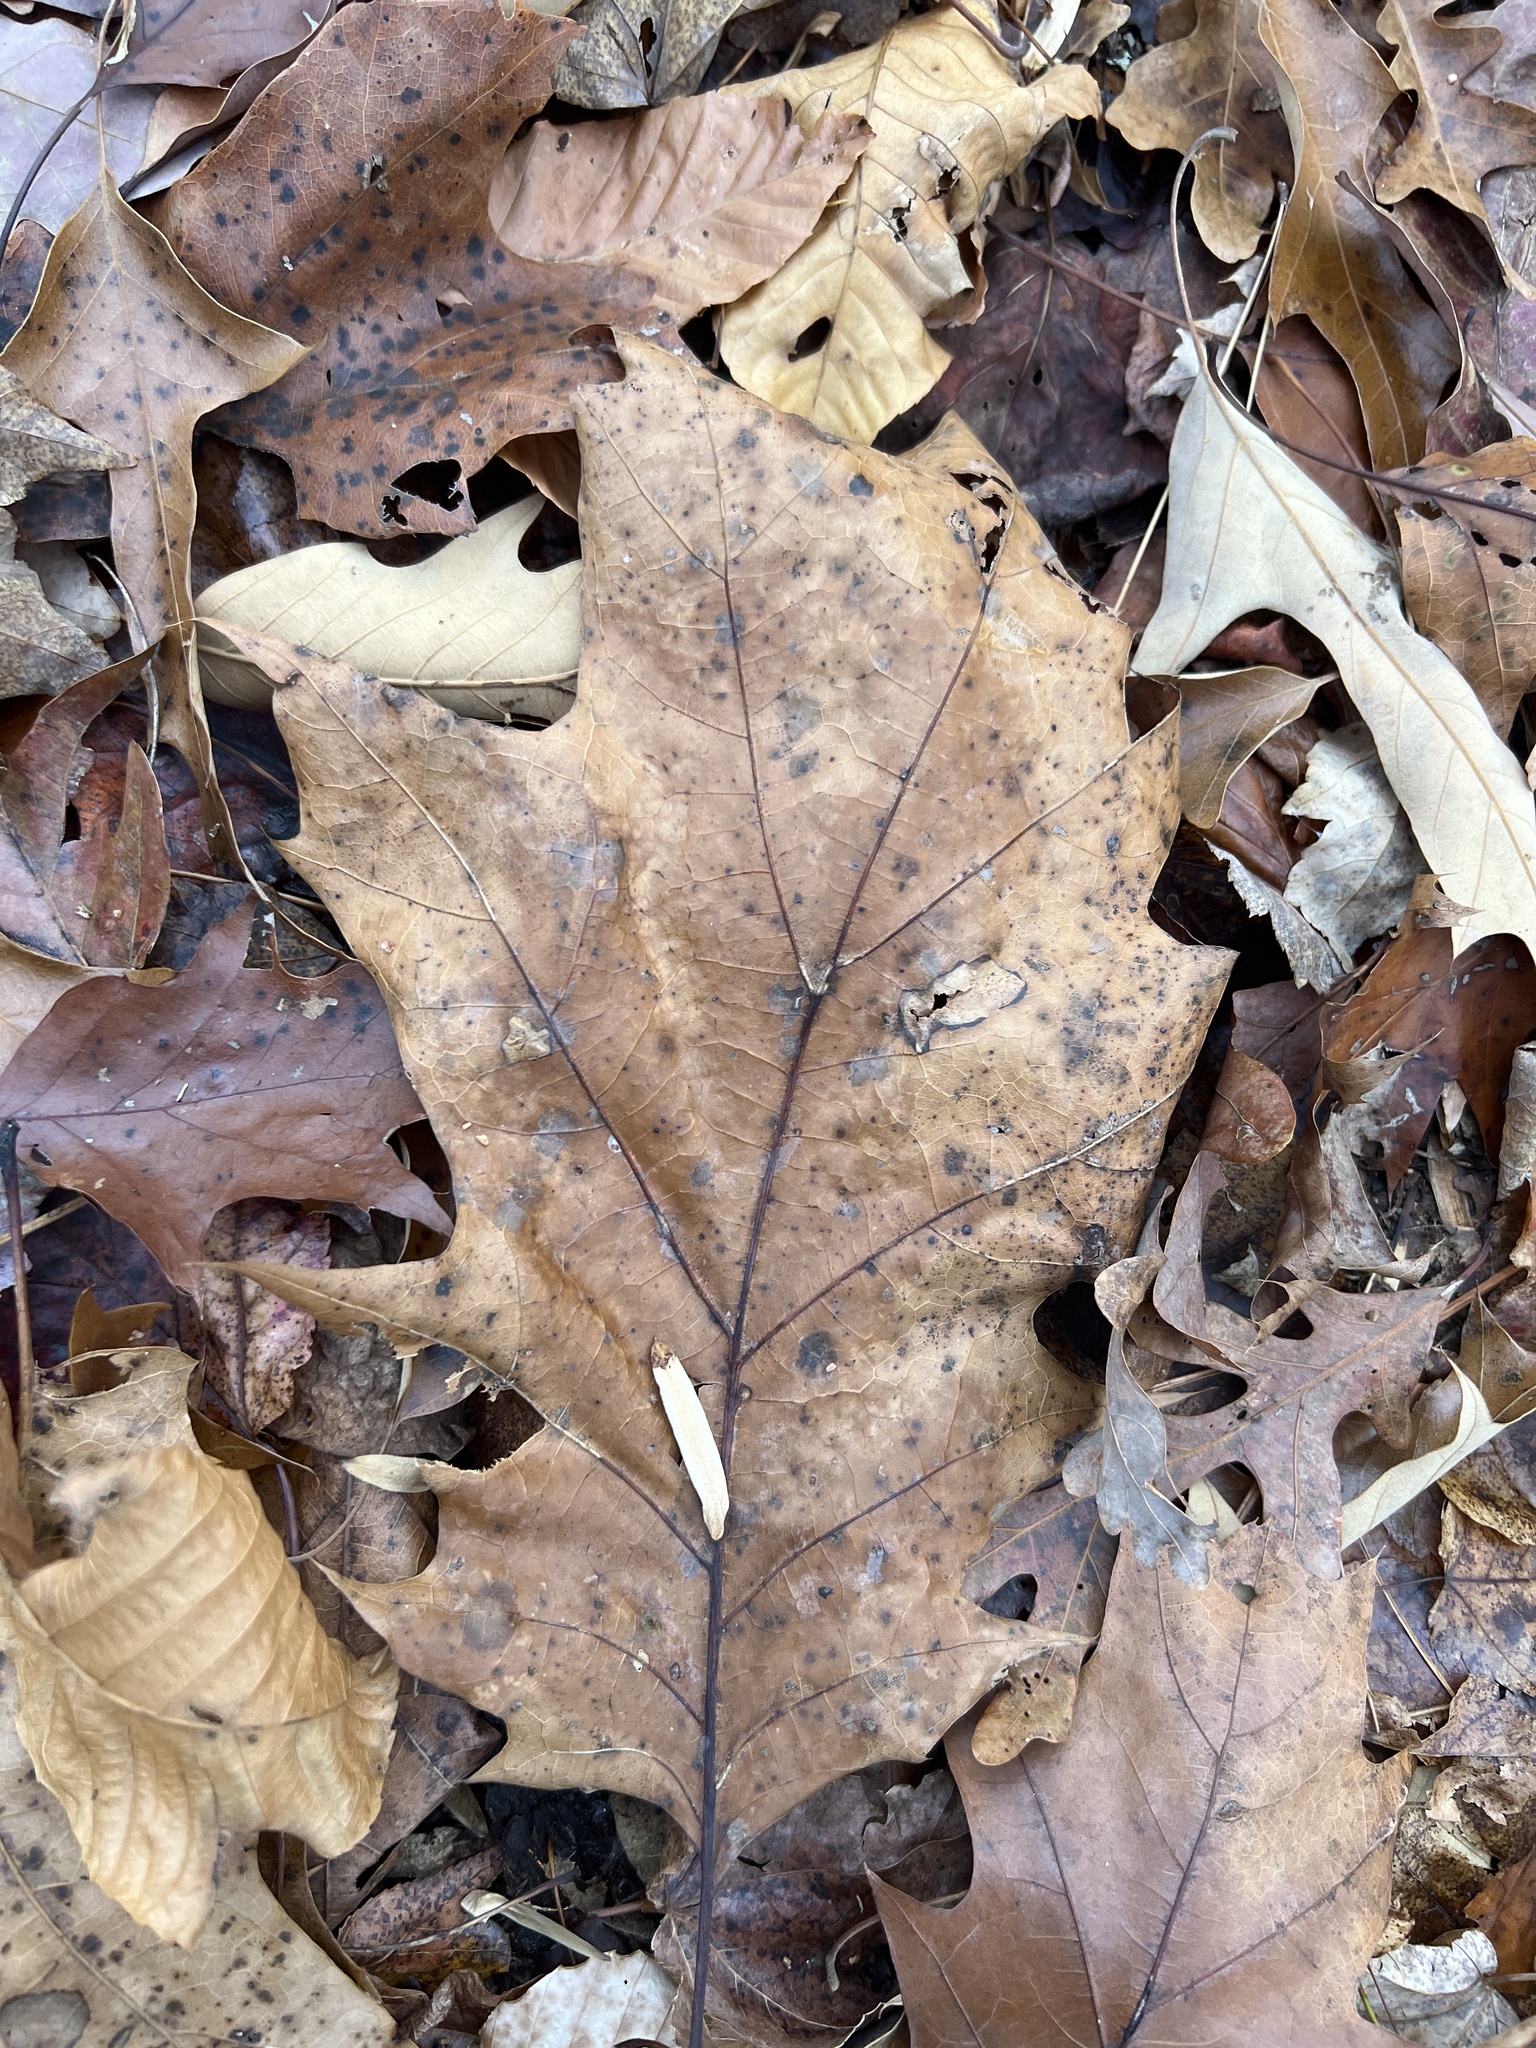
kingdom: Plantae
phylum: Tracheophyta
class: Magnoliopsida
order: Fagales
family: Fagaceae
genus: Quercus
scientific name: Quercus velutina
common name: Black oak
